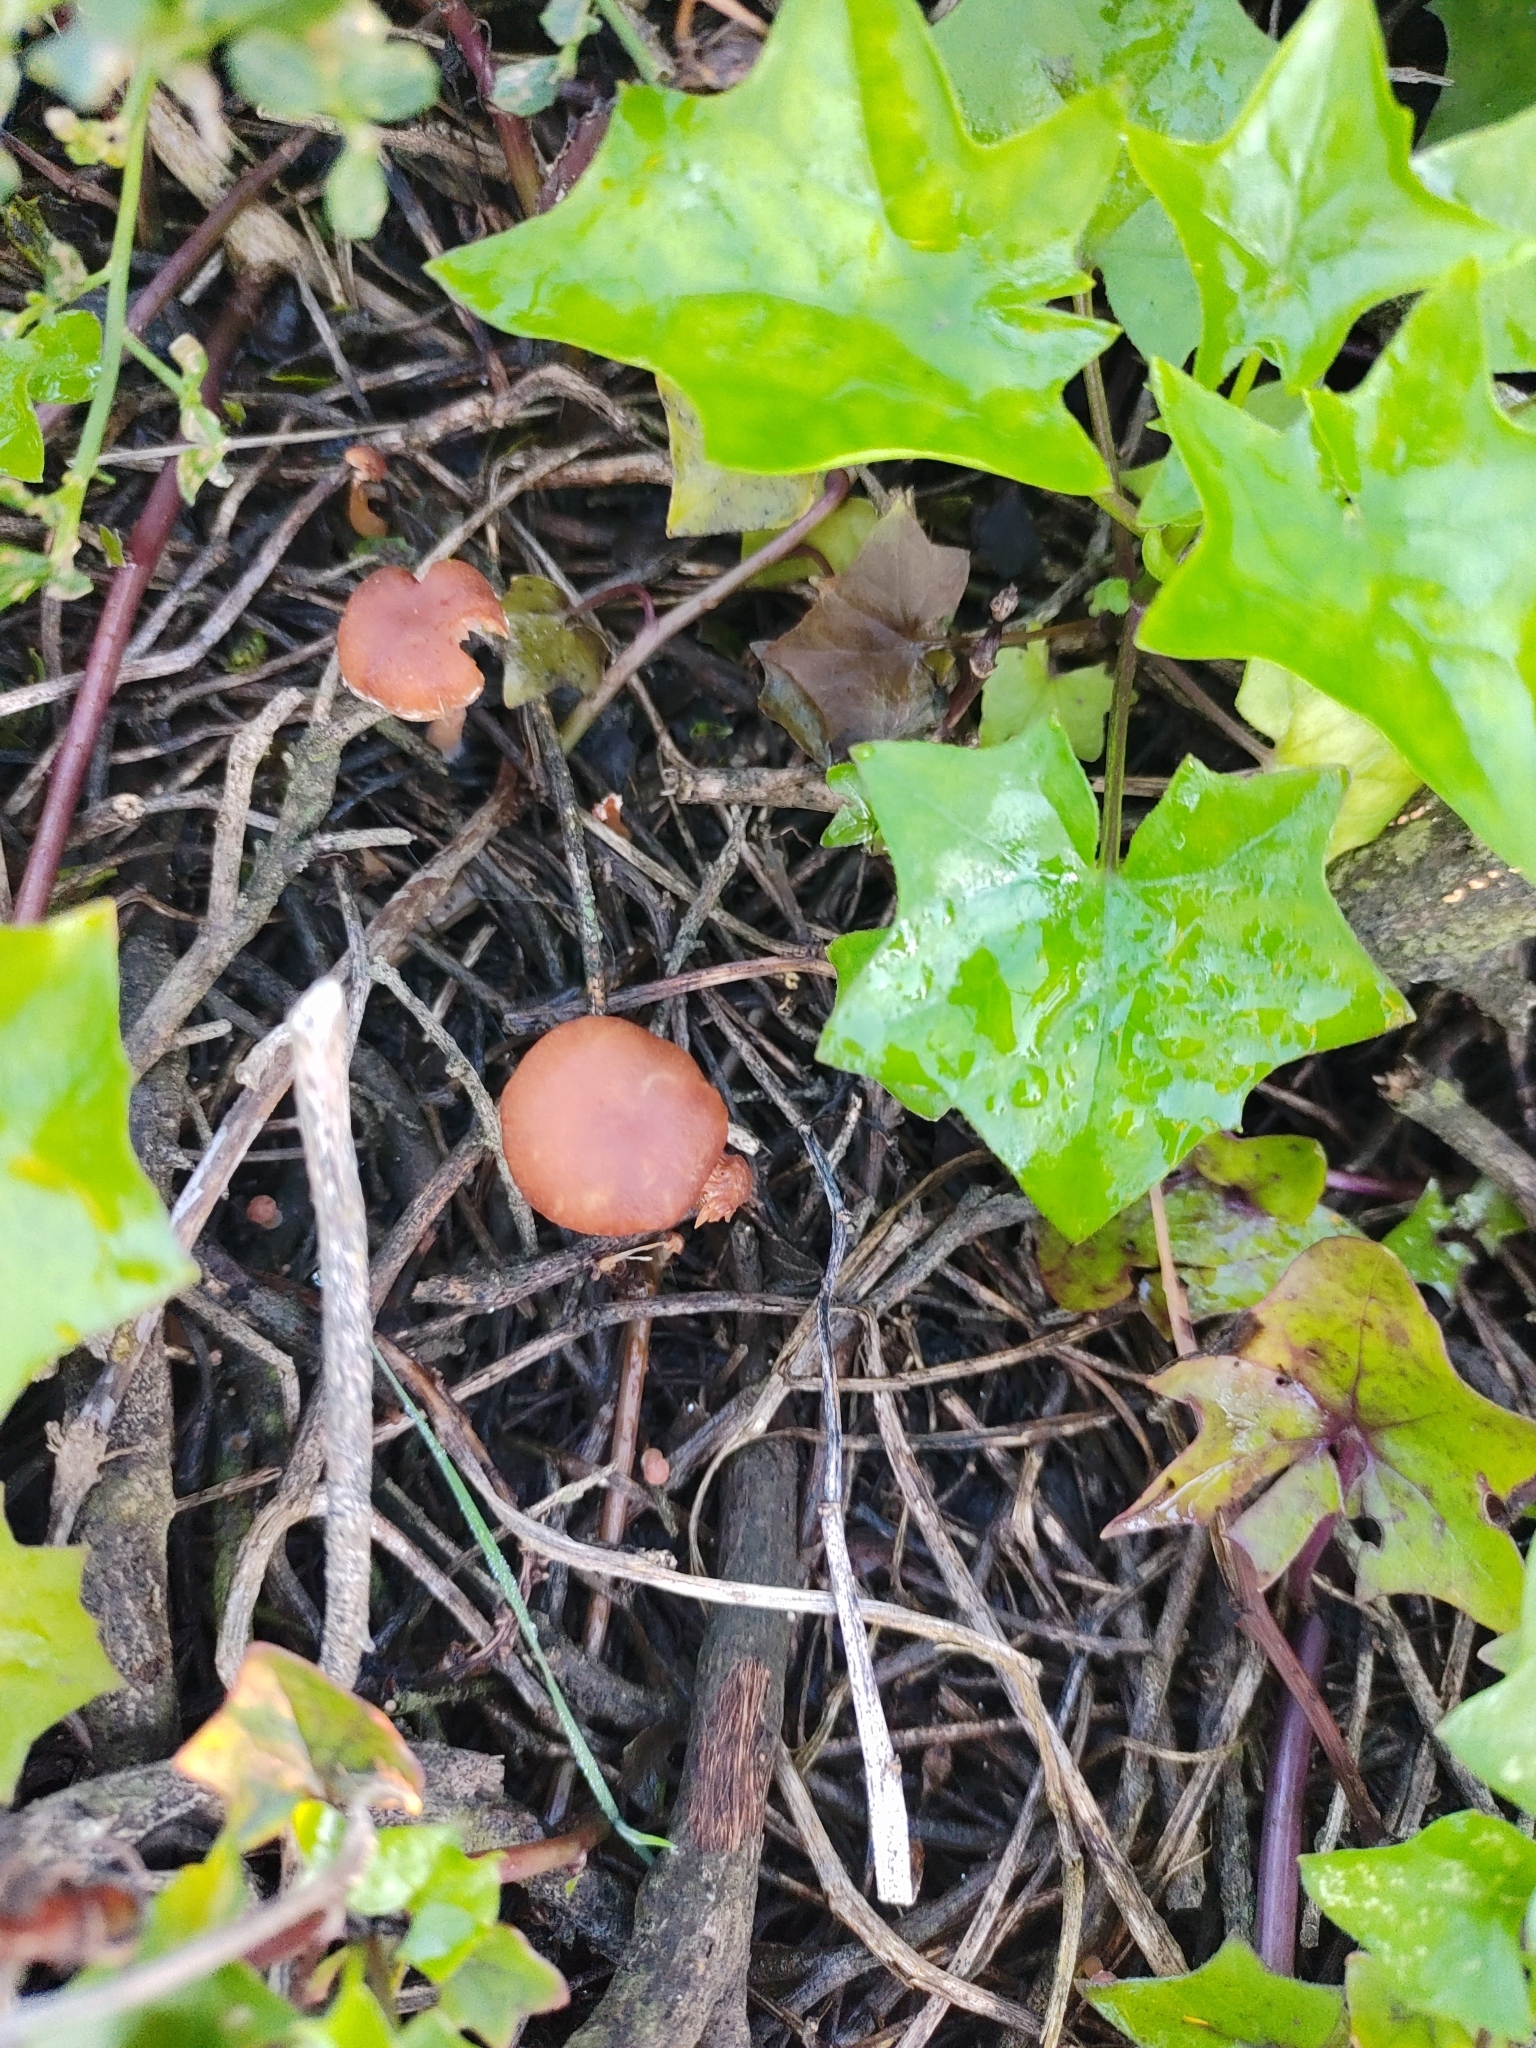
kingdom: Fungi
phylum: Basidiomycota
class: Agaricomycetes
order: Agaricales
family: Tubariaceae
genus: Tubaria
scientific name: Tubaria furfuracea
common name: Scurfy twiglet
